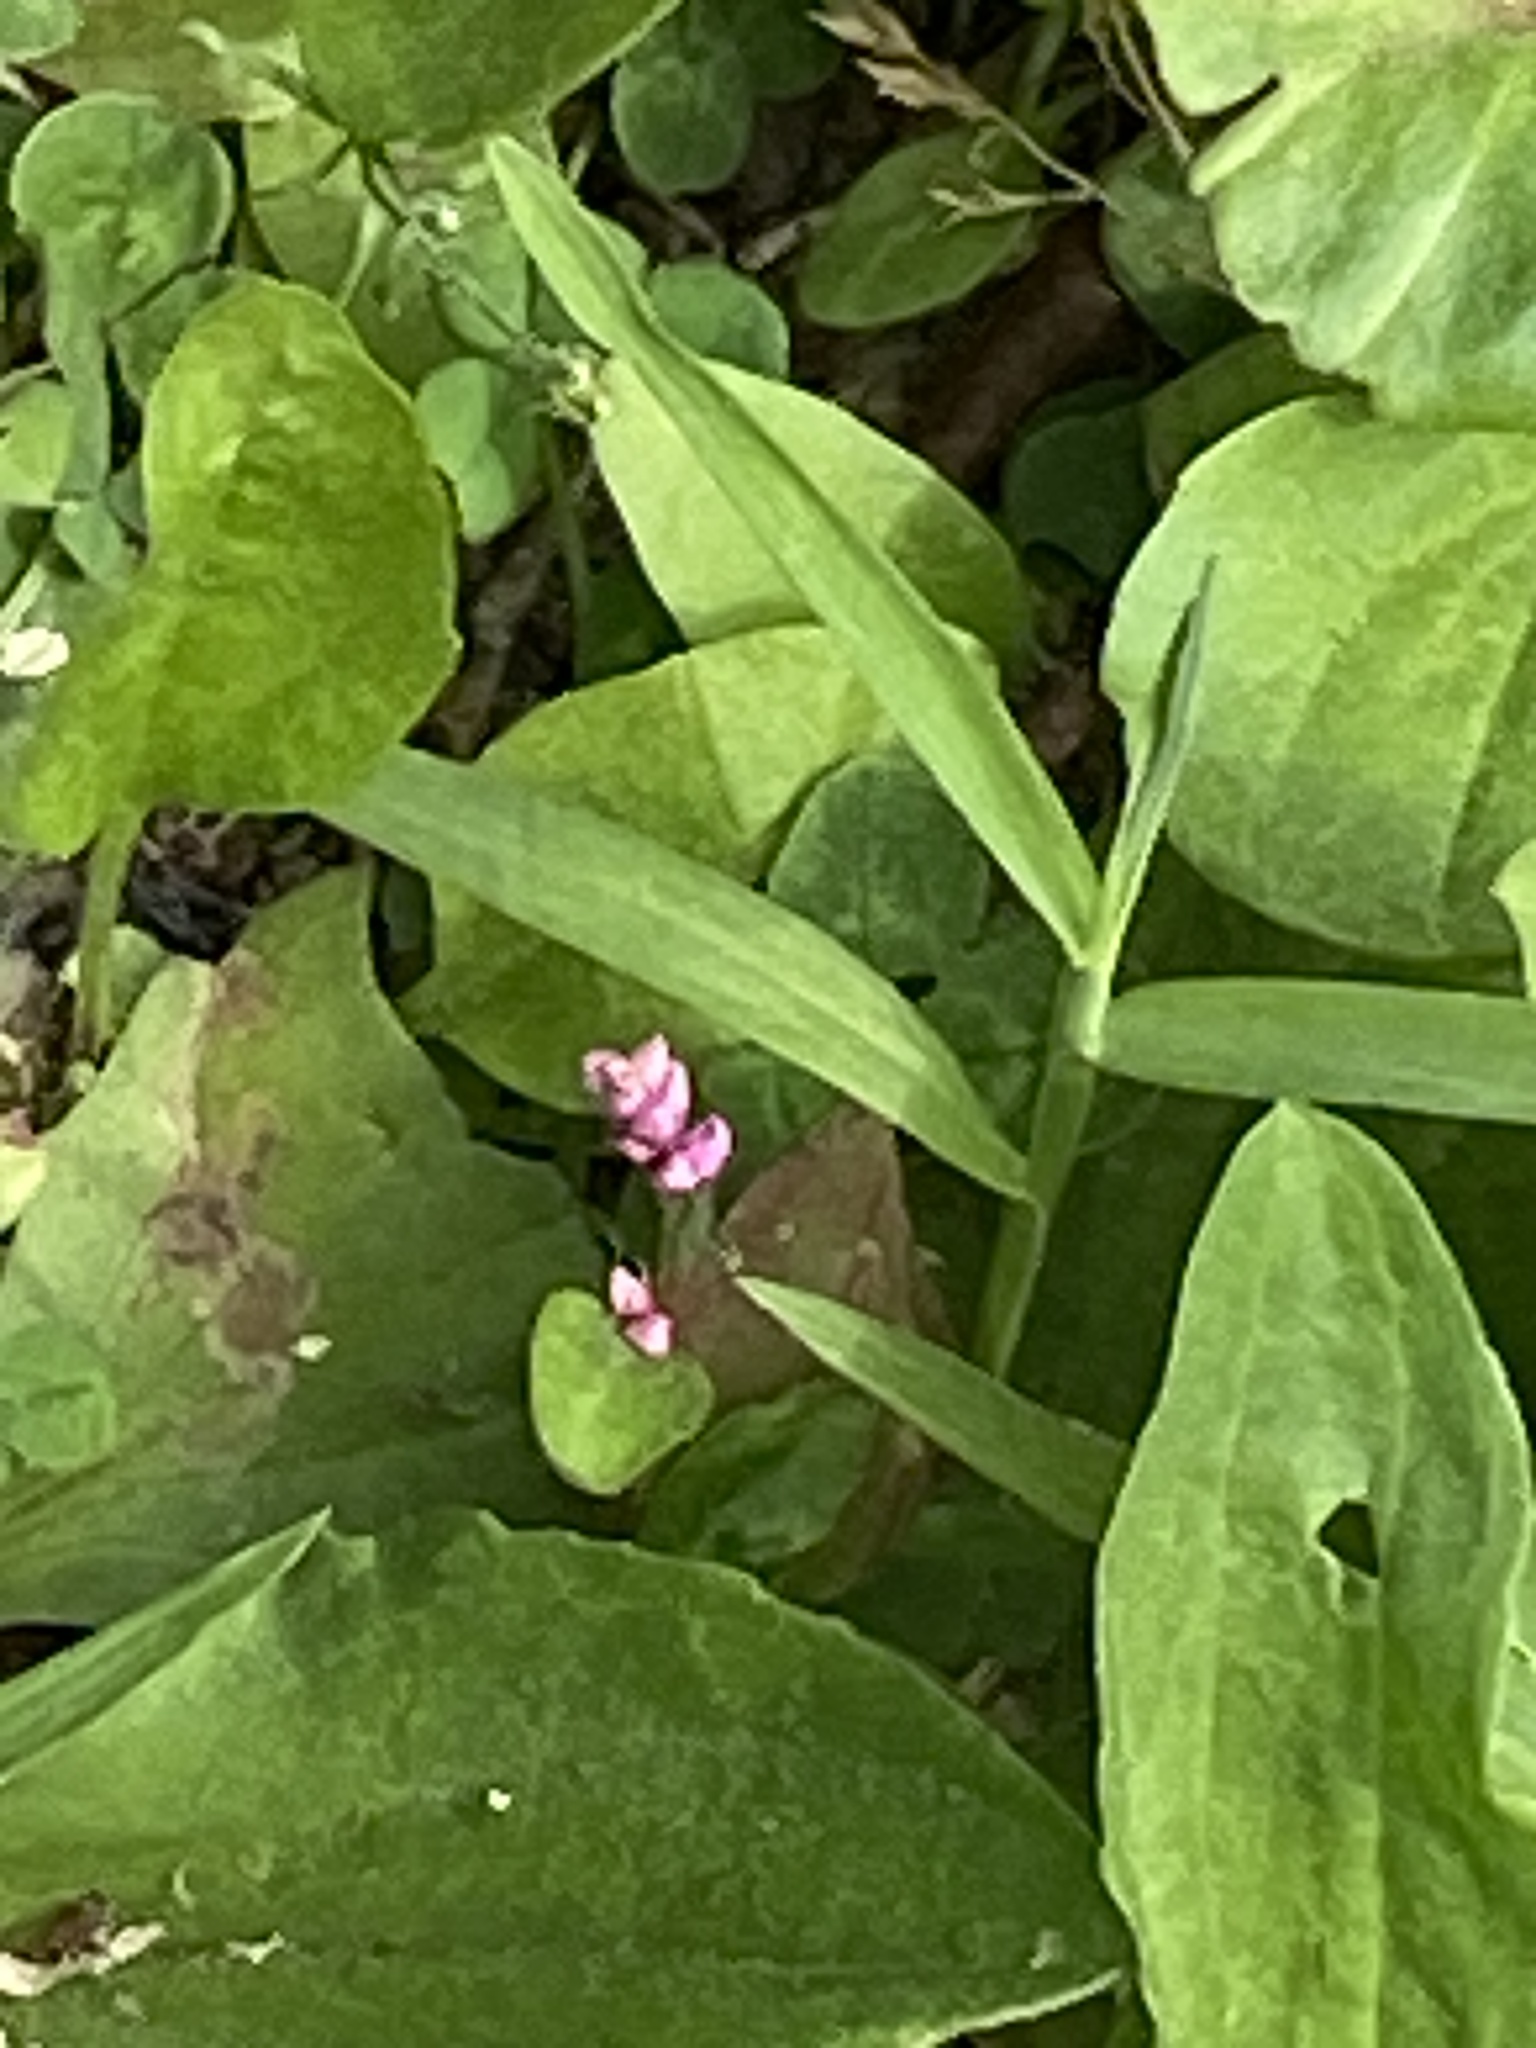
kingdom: Plantae
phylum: Tracheophyta
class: Magnoliopsida
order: Caryophyllales
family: Polygonaceae
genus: Persicaria
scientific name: Persicaria
